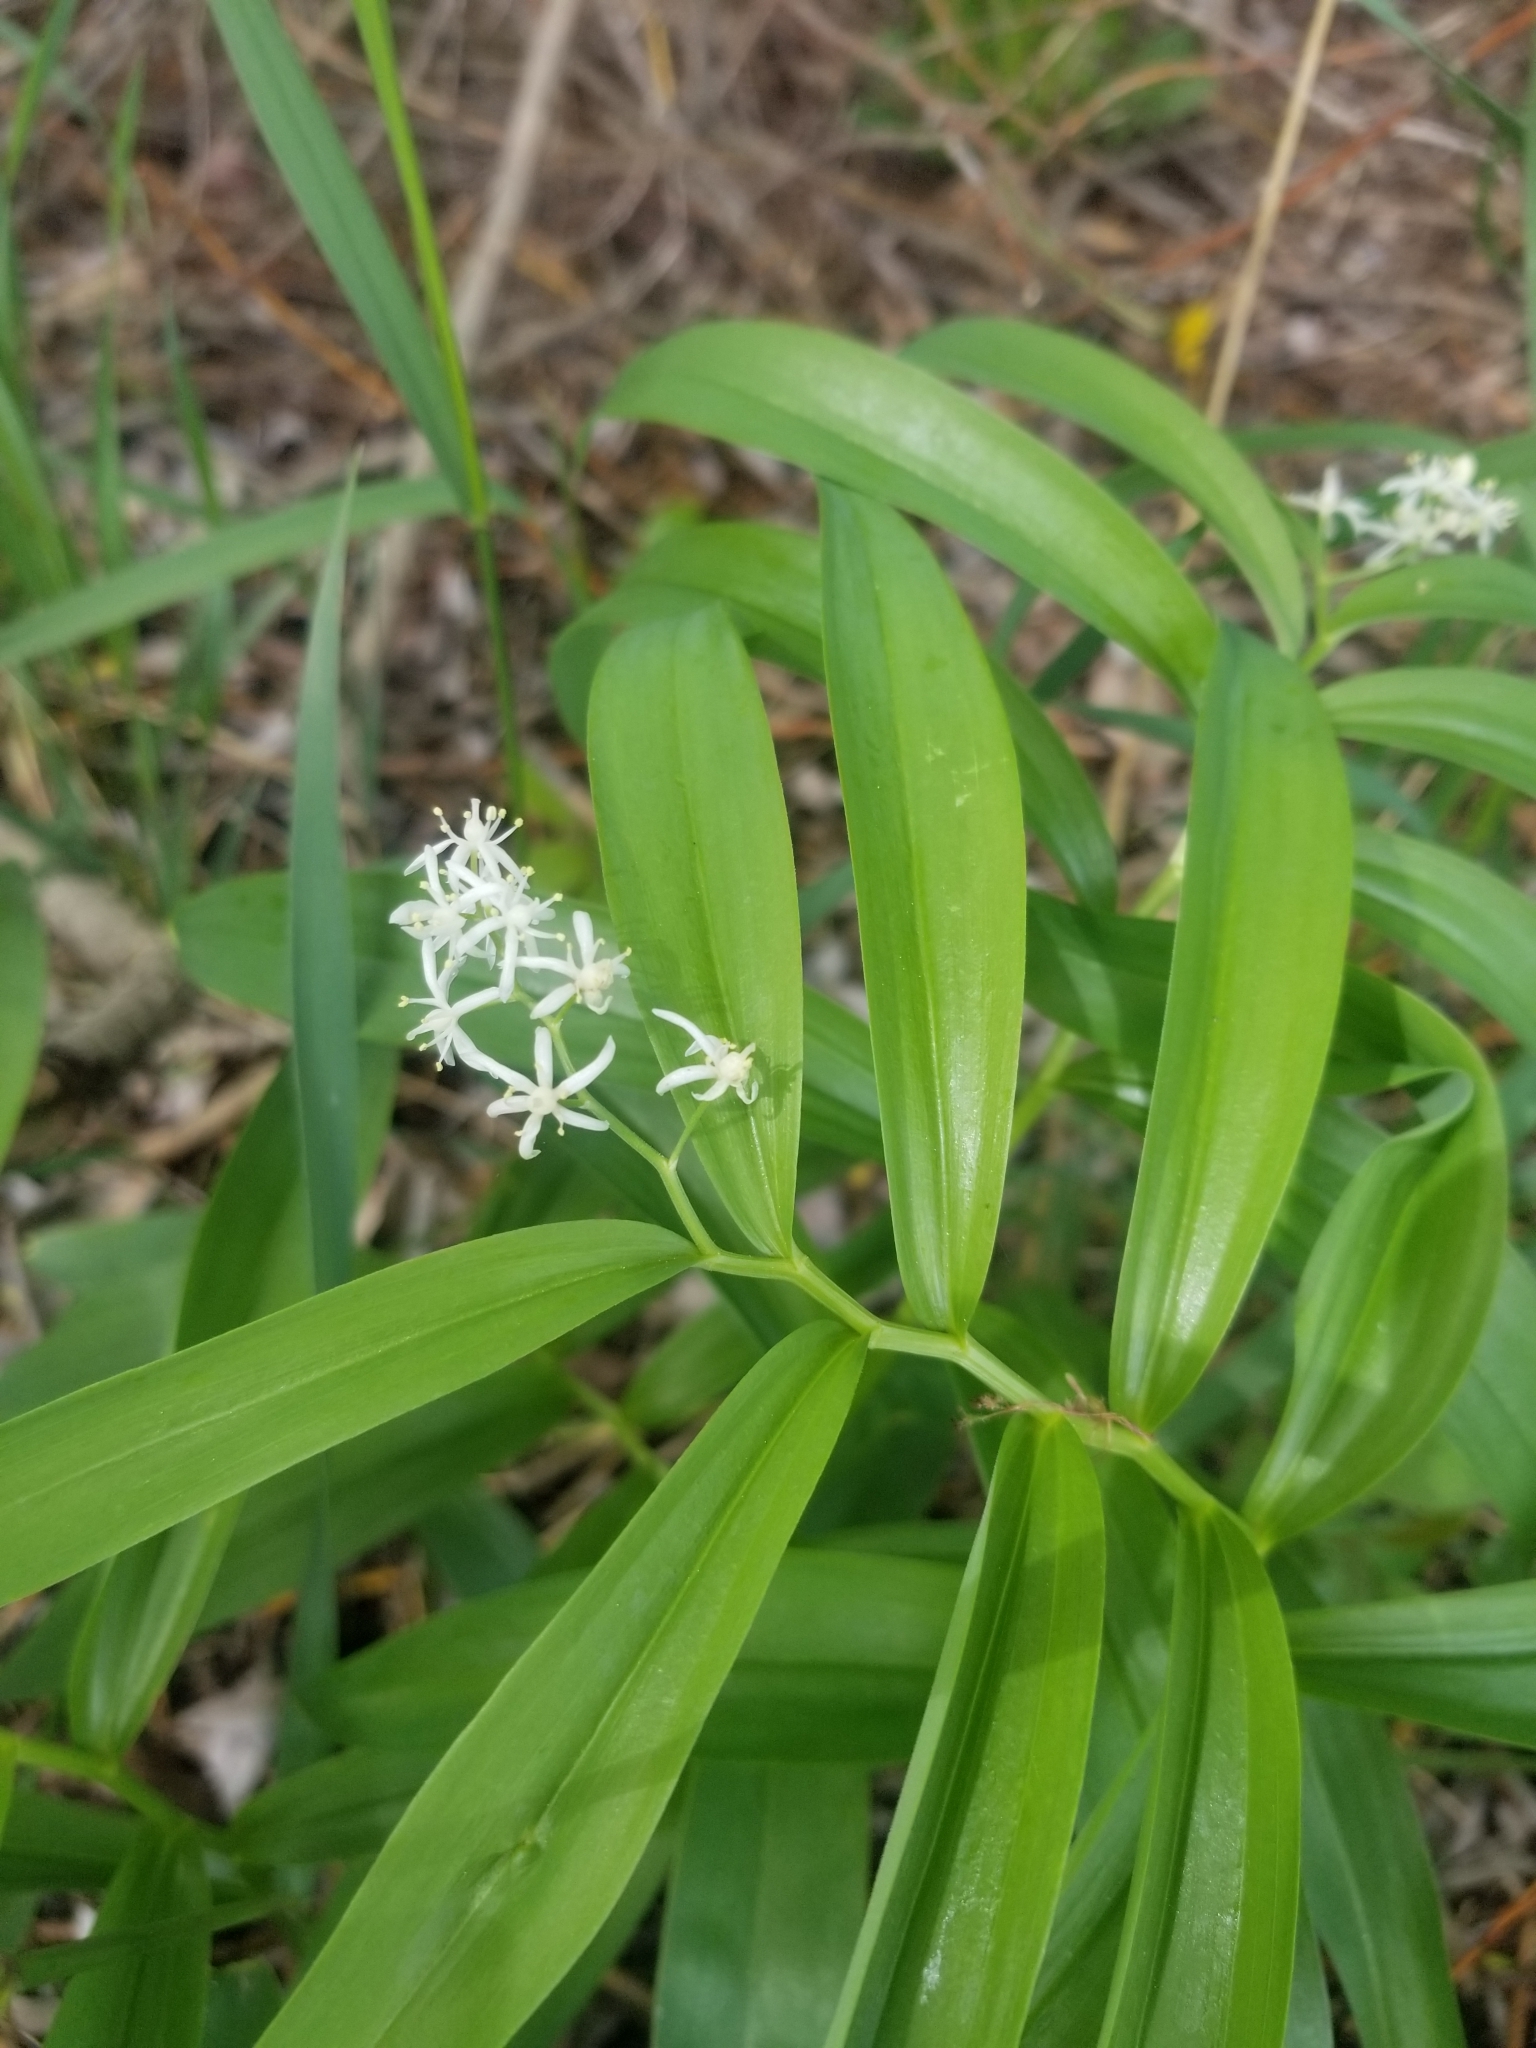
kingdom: Plantae
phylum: Tracheophyta
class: Liliopsida
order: Asparagales
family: Asparagaceae
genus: Maianthemum
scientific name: Maianthemum stellatum
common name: Little false solomon's seal
